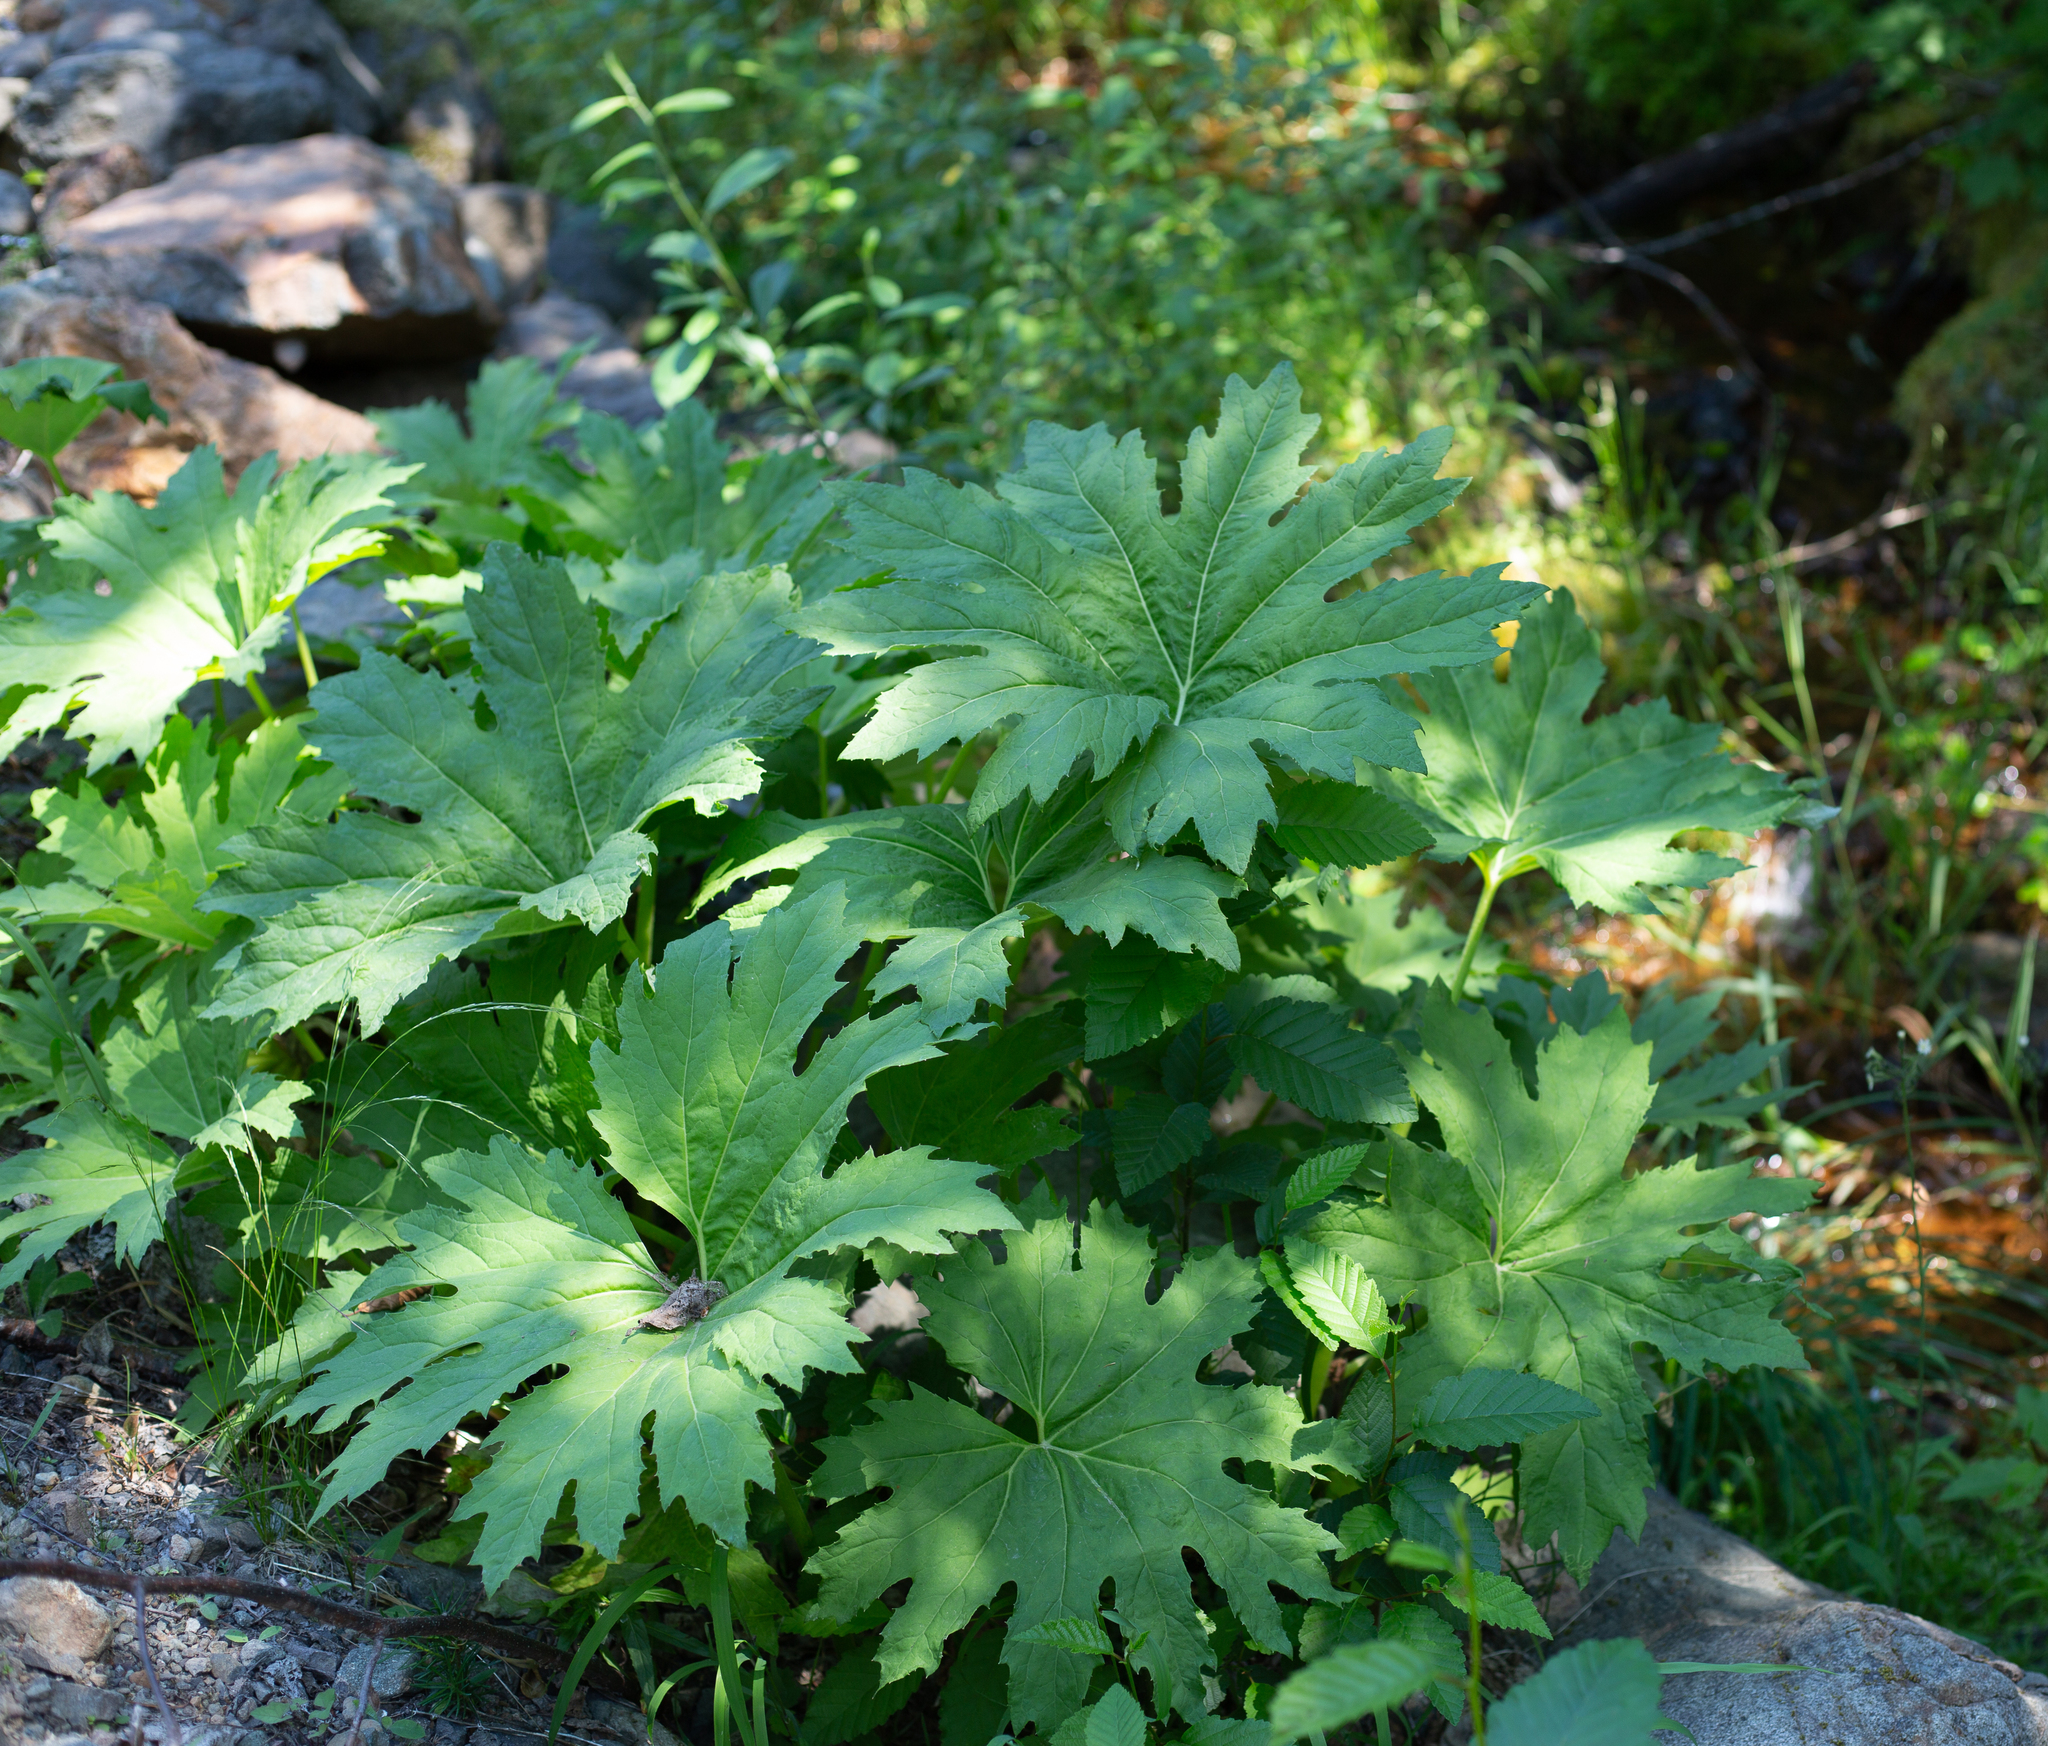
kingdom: Plantae
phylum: Tracheophyta
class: Magnoliopsida
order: Asterales
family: Asteraceae
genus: Petasites
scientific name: Petasites frigidus
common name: Arctic butterbur
